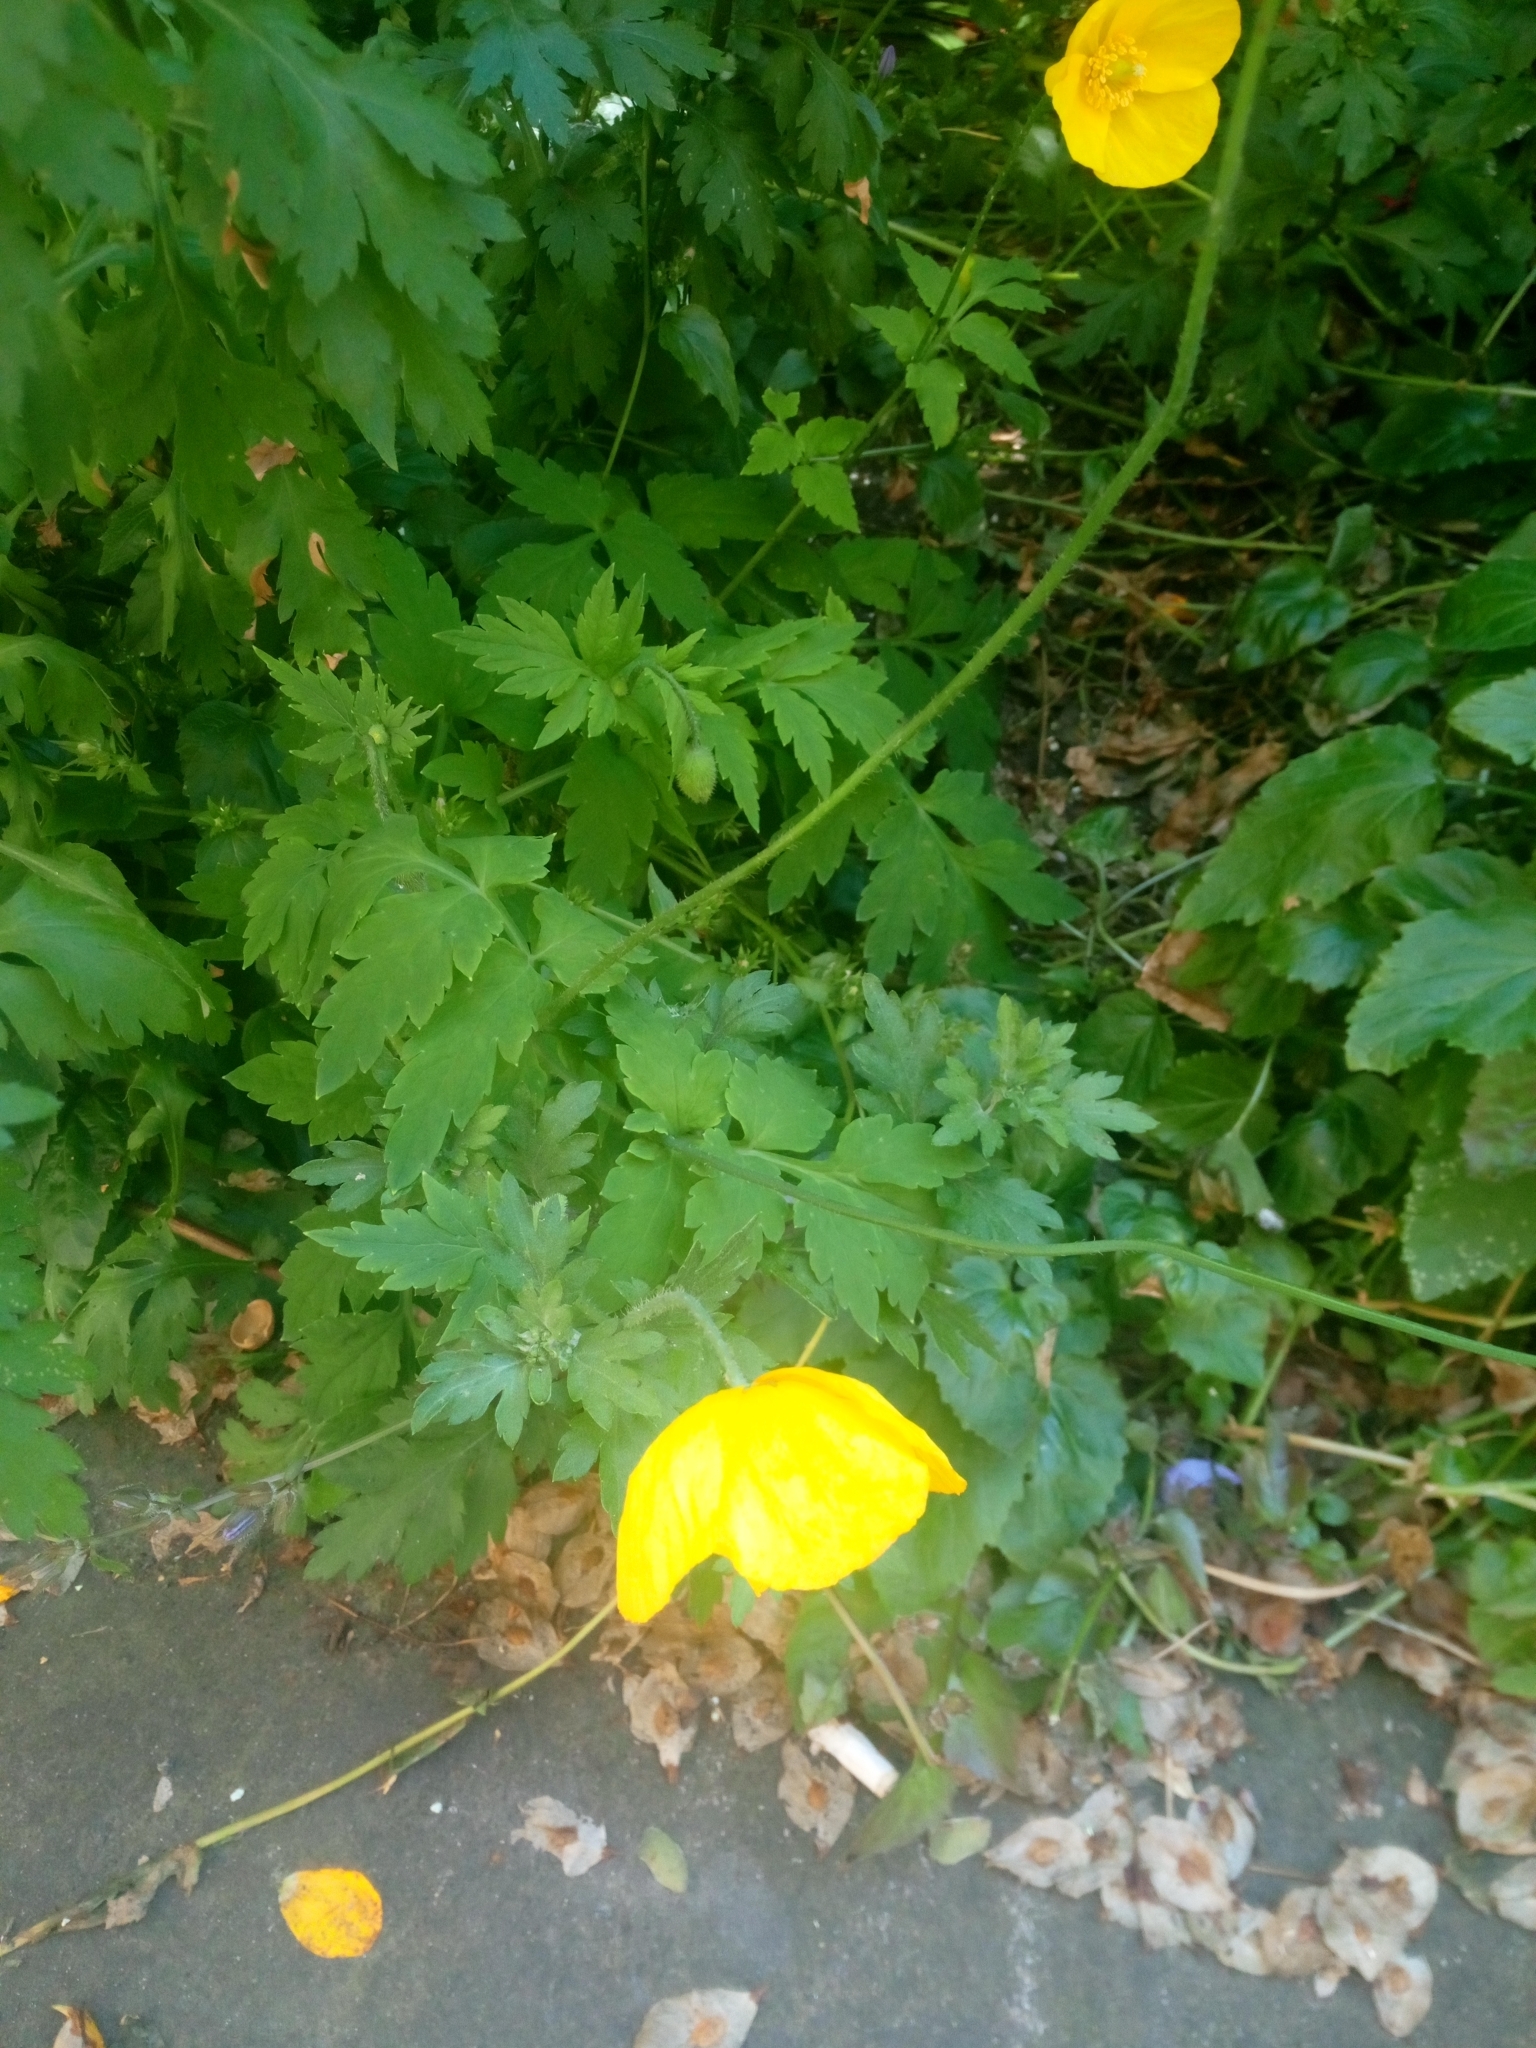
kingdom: Plantae
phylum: Tracheophyta
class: Magnoliopsida
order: Ranunculales
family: Papaveraceae
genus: Papaver
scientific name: Papaver cambricum
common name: Poppy
